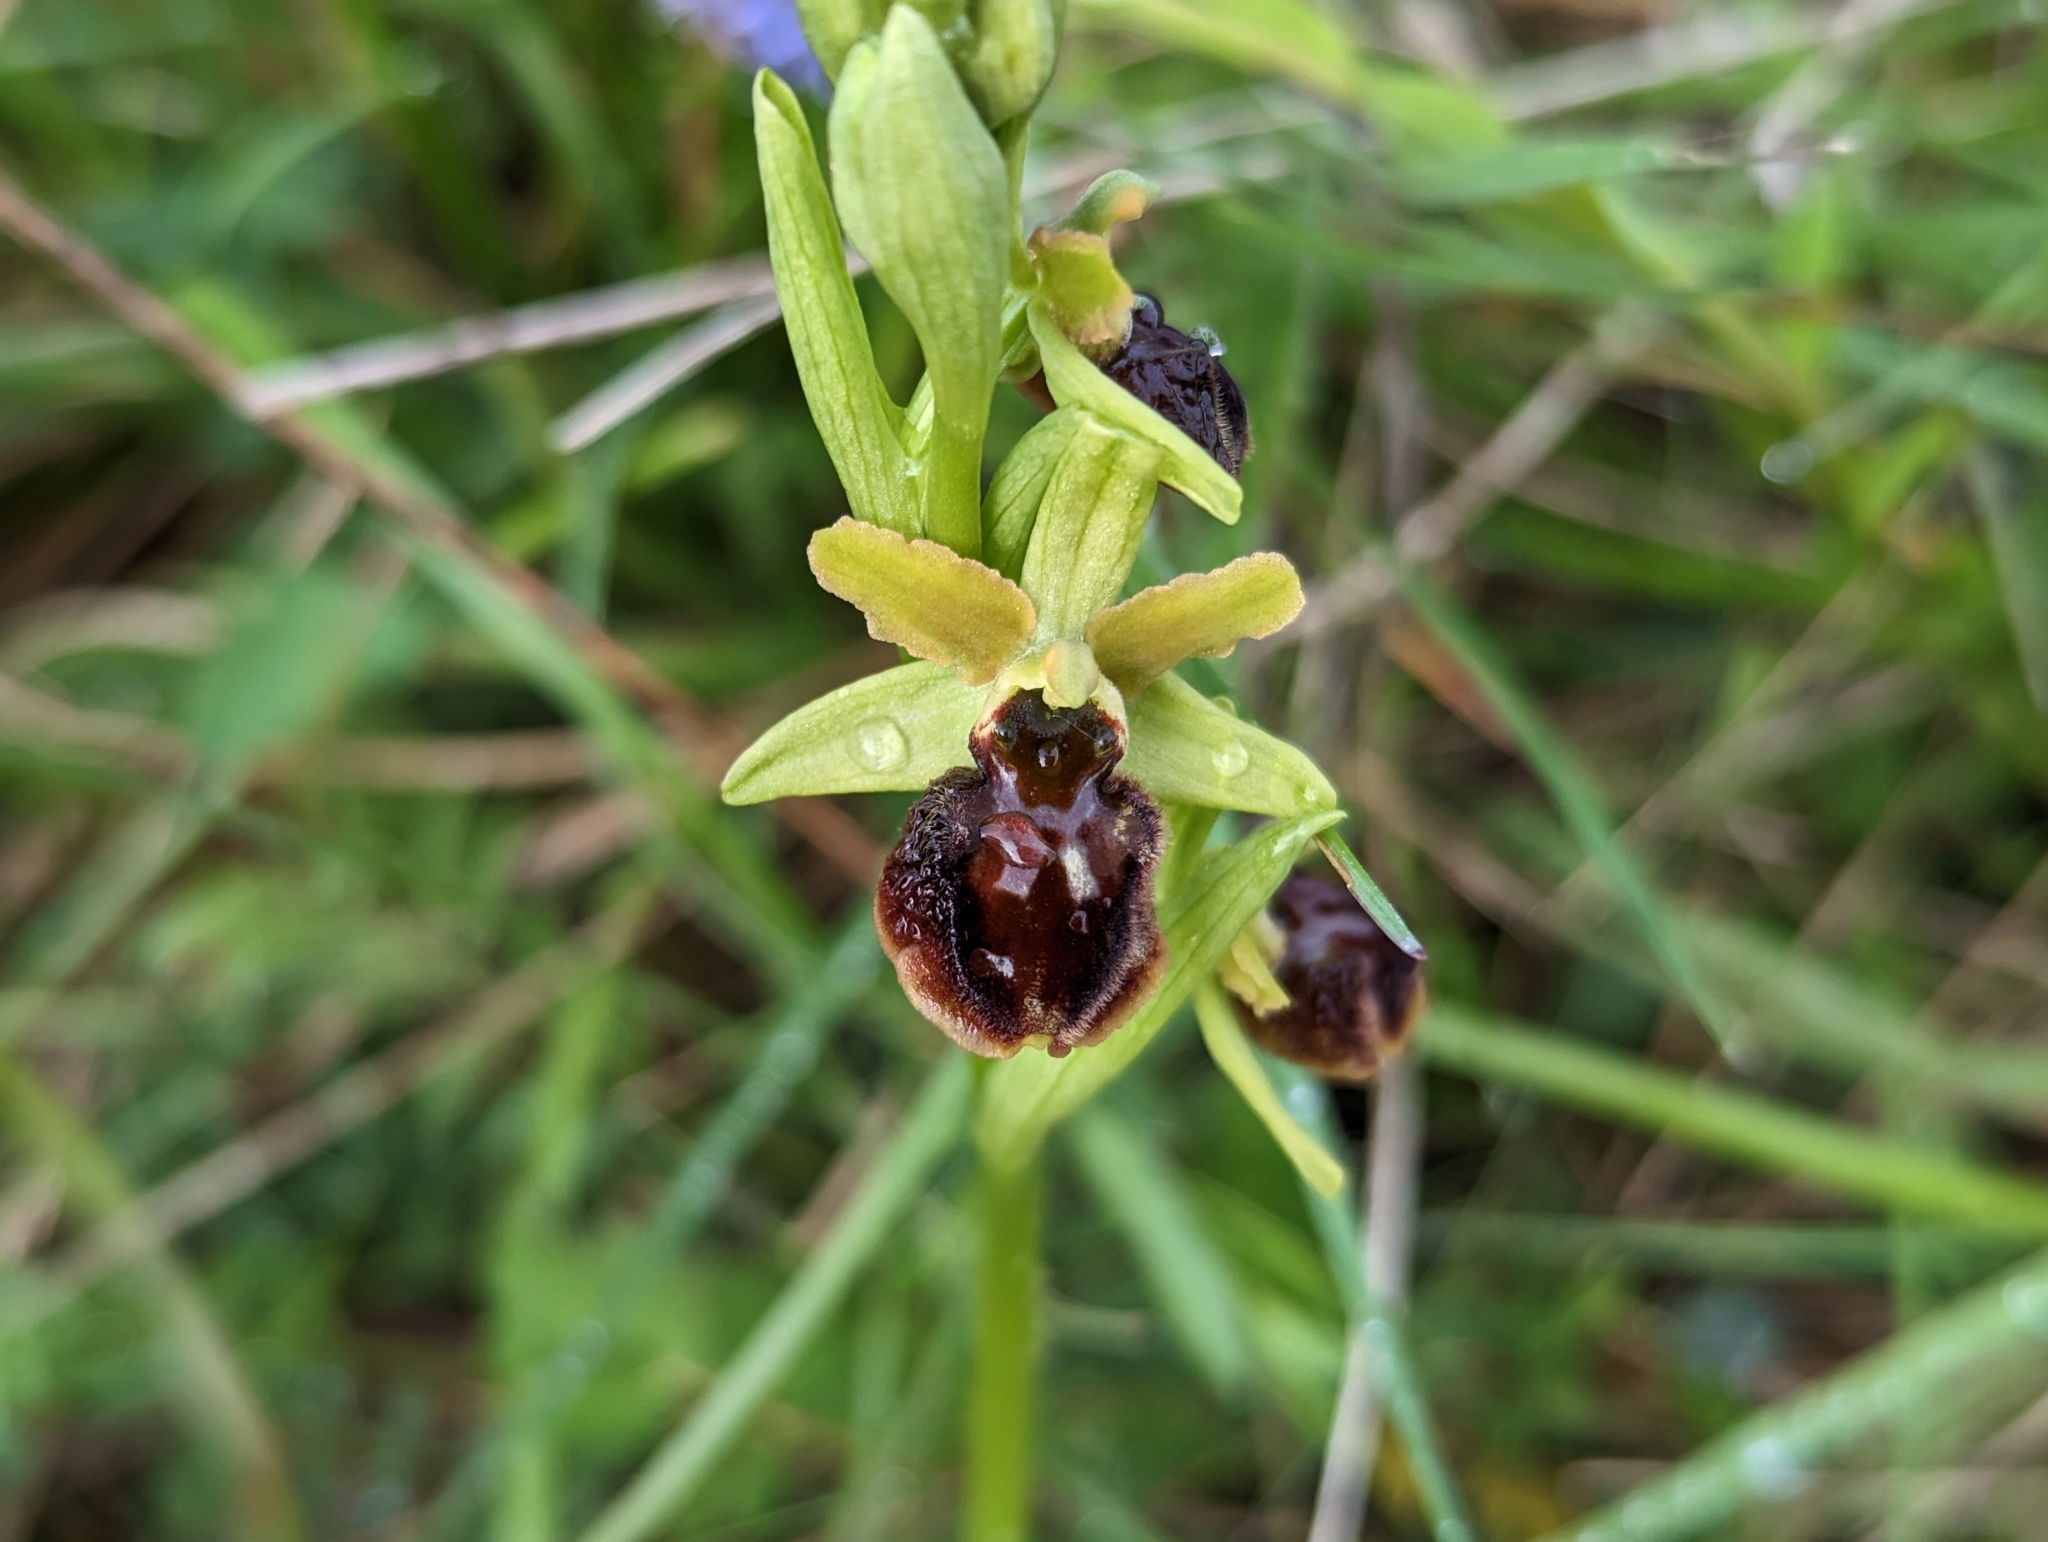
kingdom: Plantae
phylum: Tracheophyta
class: Liliopsida
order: Asparagales
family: Orchidaceae
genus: Ophrys
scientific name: Ophrys sphegodes
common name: Early spider-orchid
